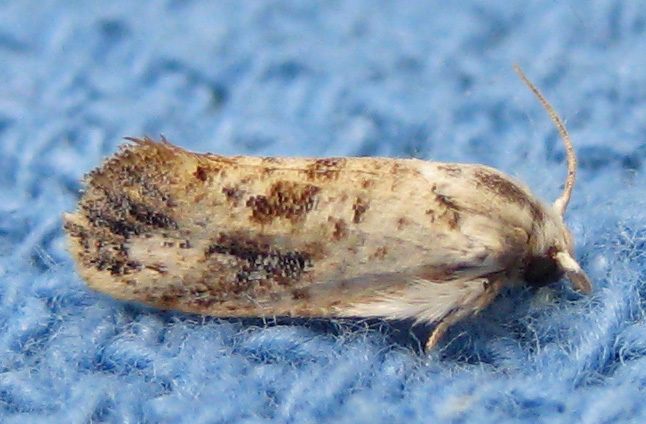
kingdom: Animalia
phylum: Arthropoda
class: Insecta
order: Lepidoptera
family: Tineidae
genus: Acrolophus
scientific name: Acrolophus mycetophagus
